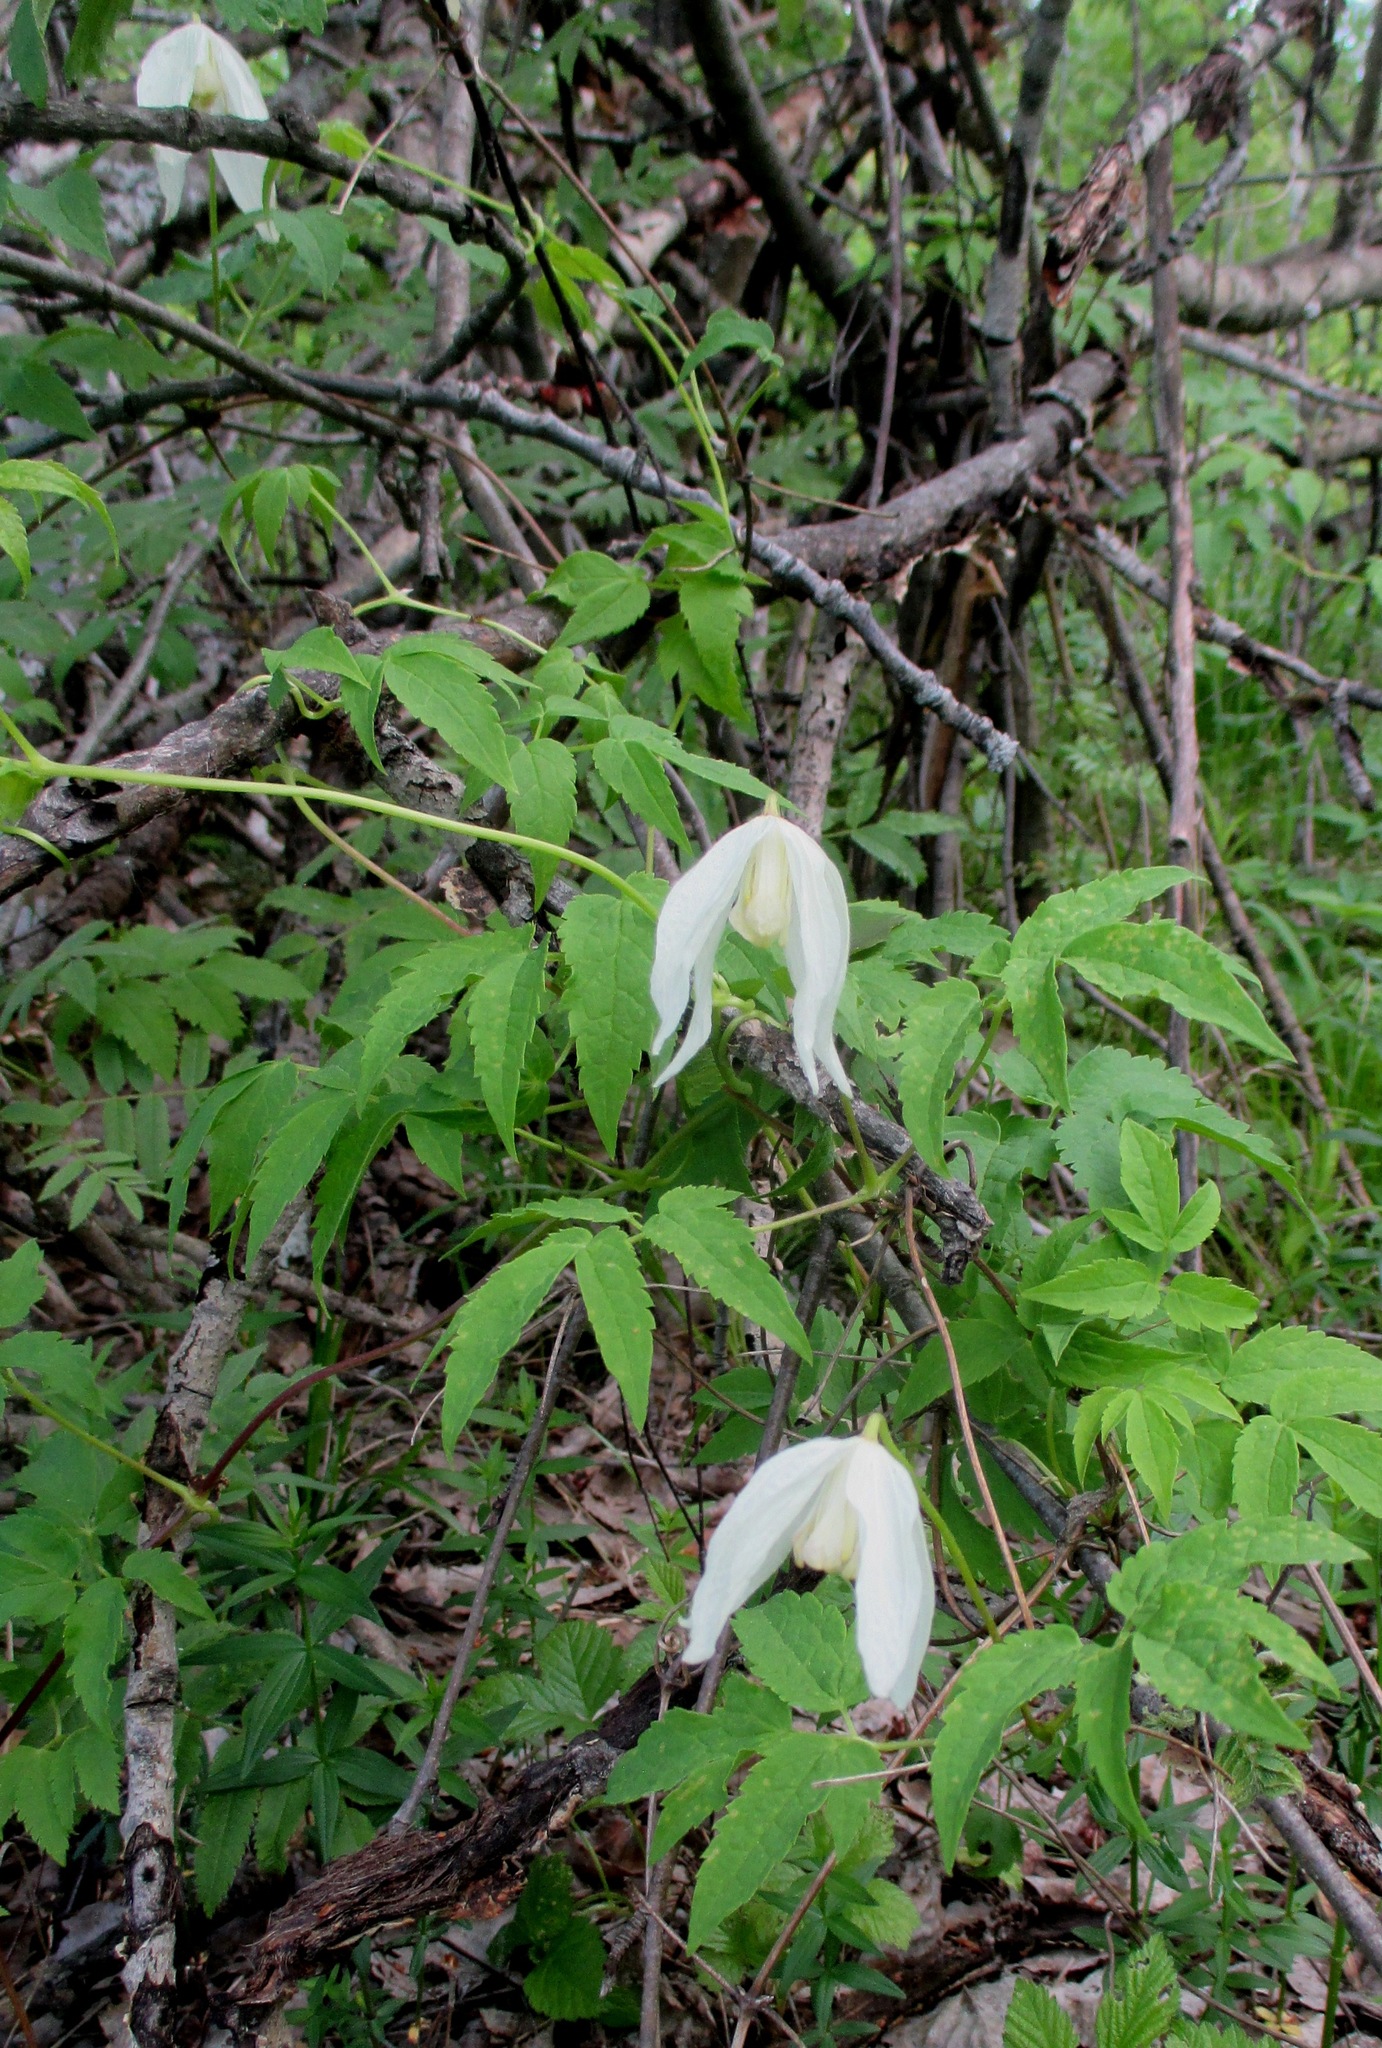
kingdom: Plantae
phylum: Tracheophyta
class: Magnoliopsida
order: Ranunculales
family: Ranunculaceae
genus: Clematis
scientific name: Clematis sibirica
